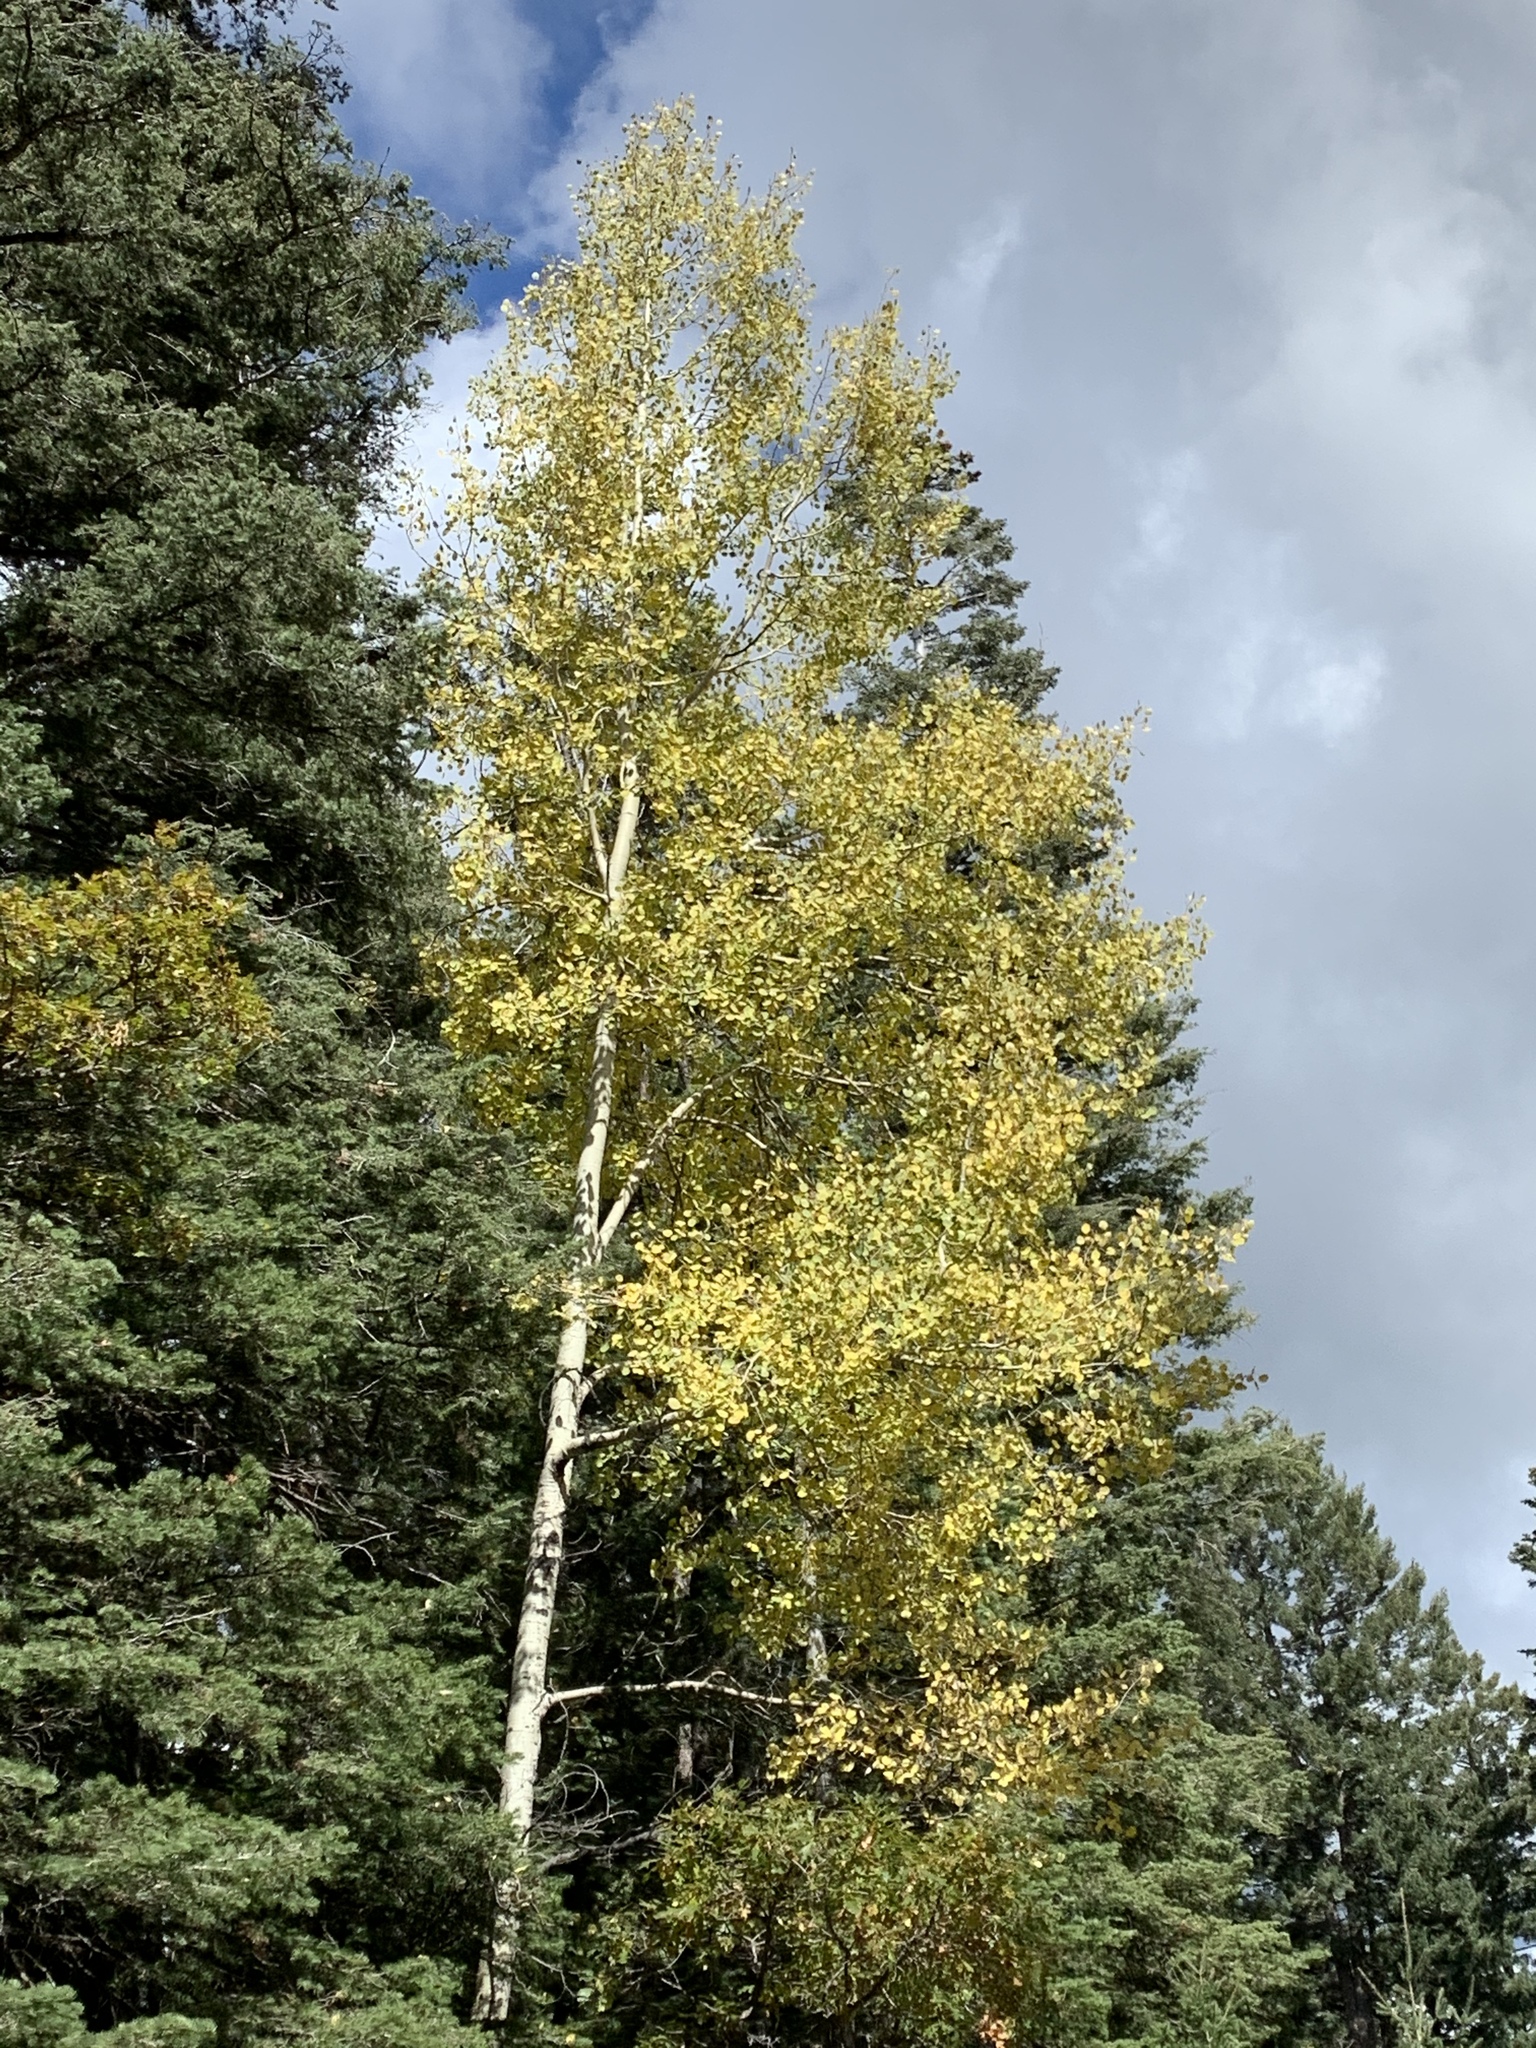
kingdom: Plantae
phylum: Tracheophyta
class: Magnoliopsida
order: Malpighiales
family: Salicaceae
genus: Populus
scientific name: Populus tremuloides
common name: Quaking aspen
